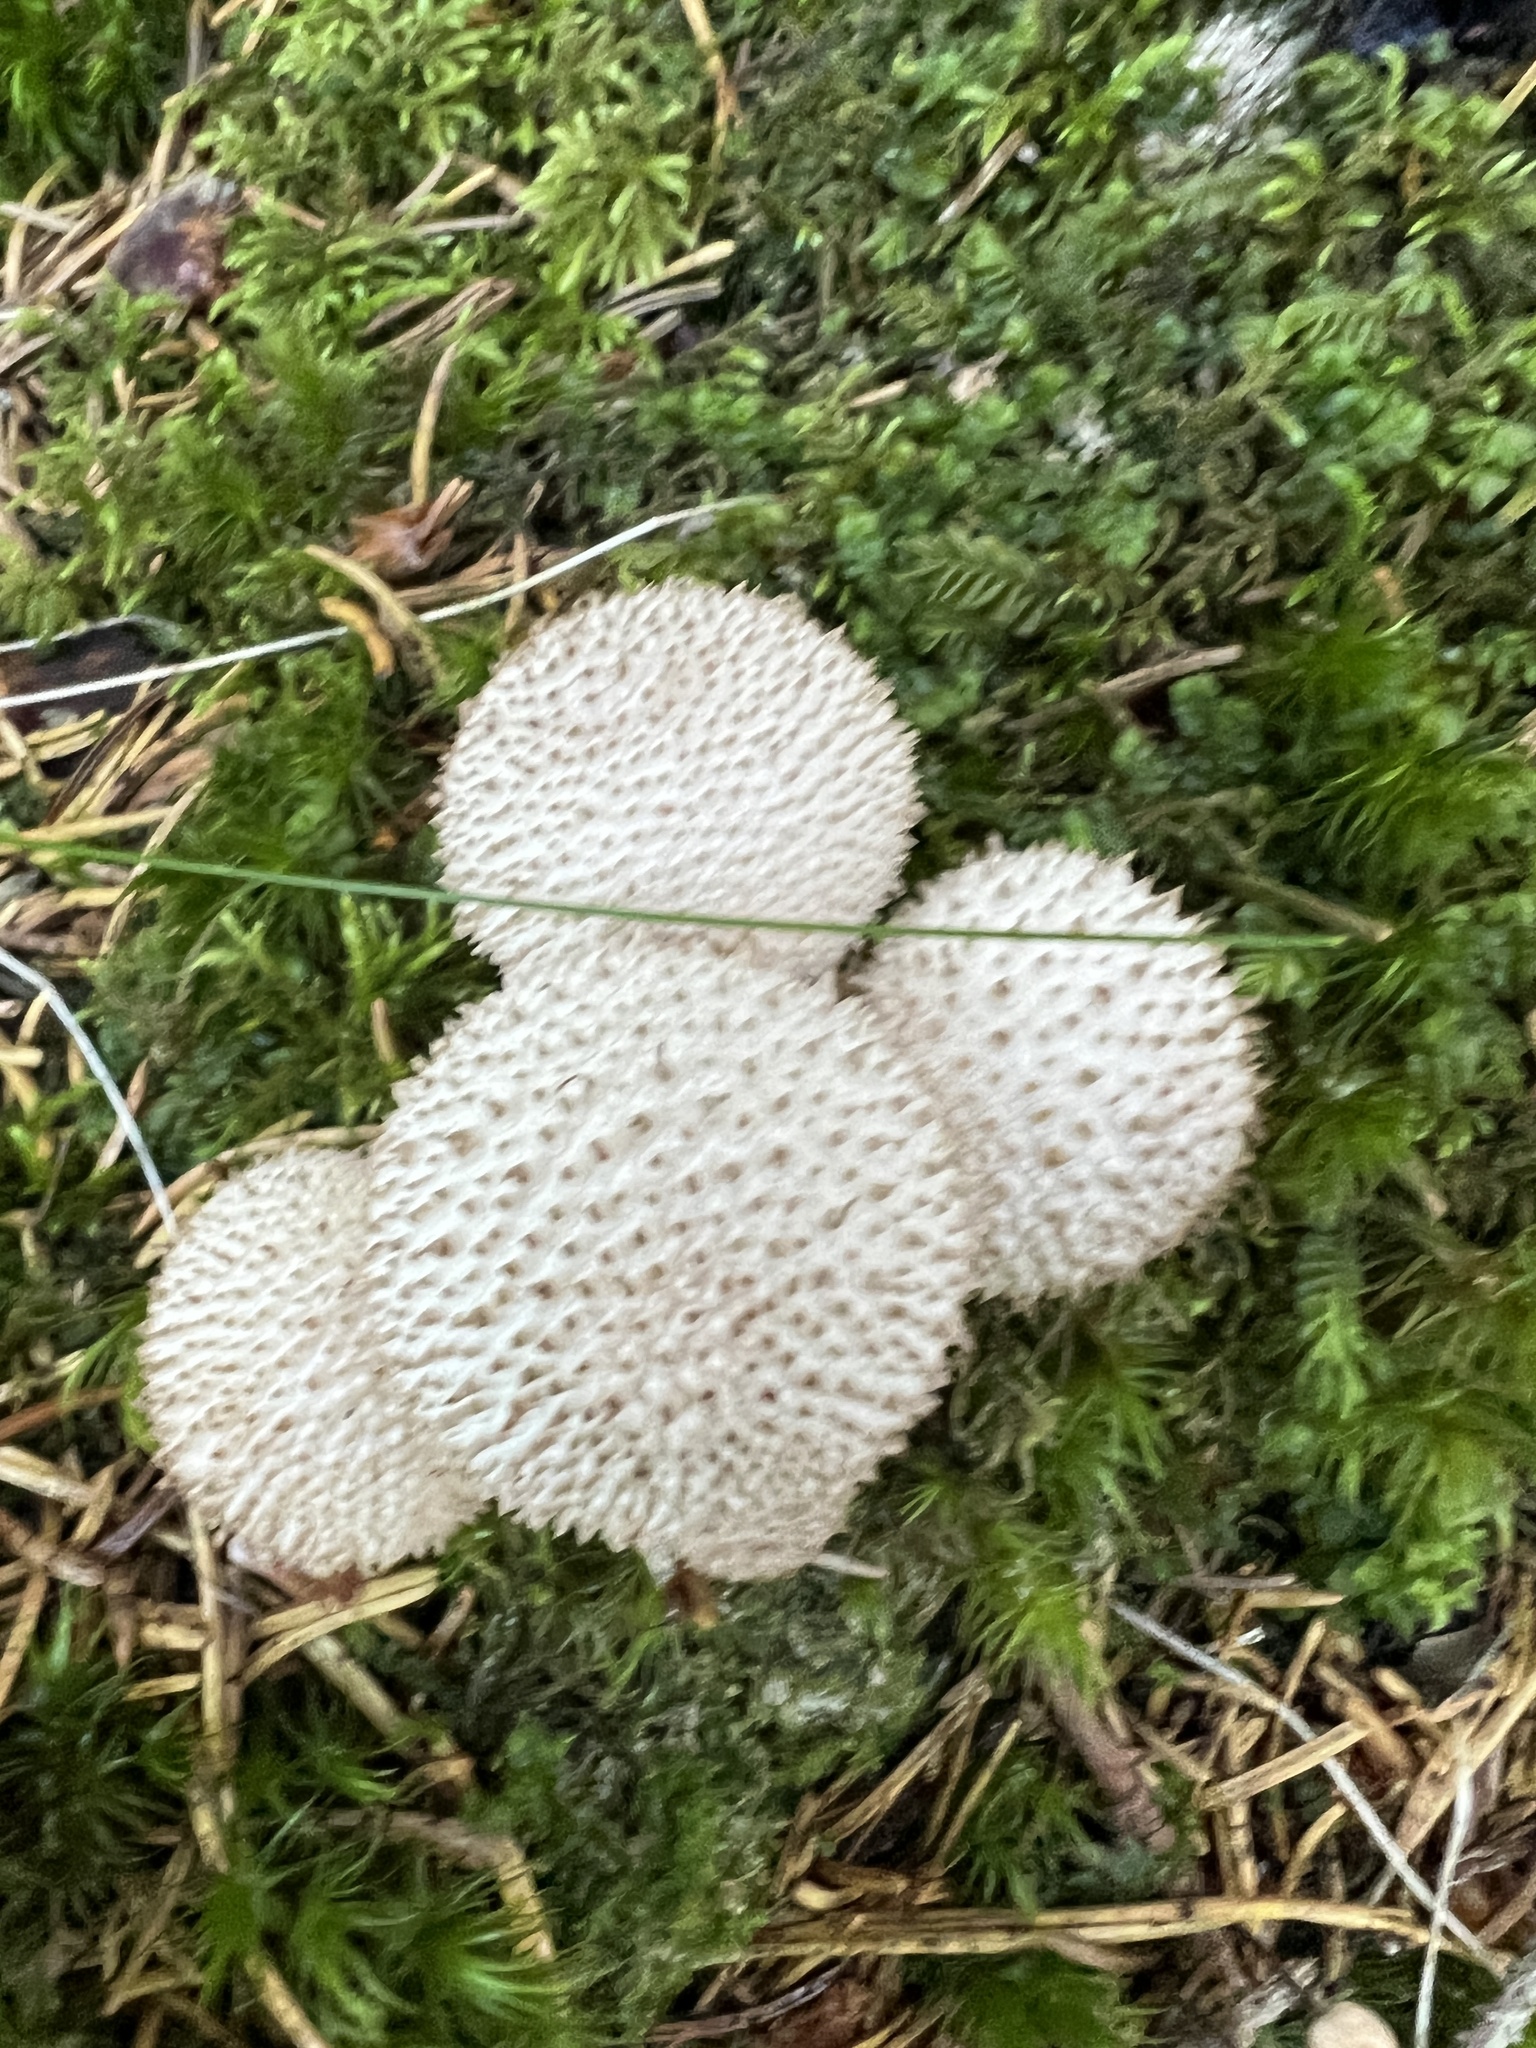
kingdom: Fungi
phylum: Basidiomycota
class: Agaricomycetes
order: Agaricales
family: Lycoperdaceae
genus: Lycoperdon
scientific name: Lycoperdon perlatum
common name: Common puffball
